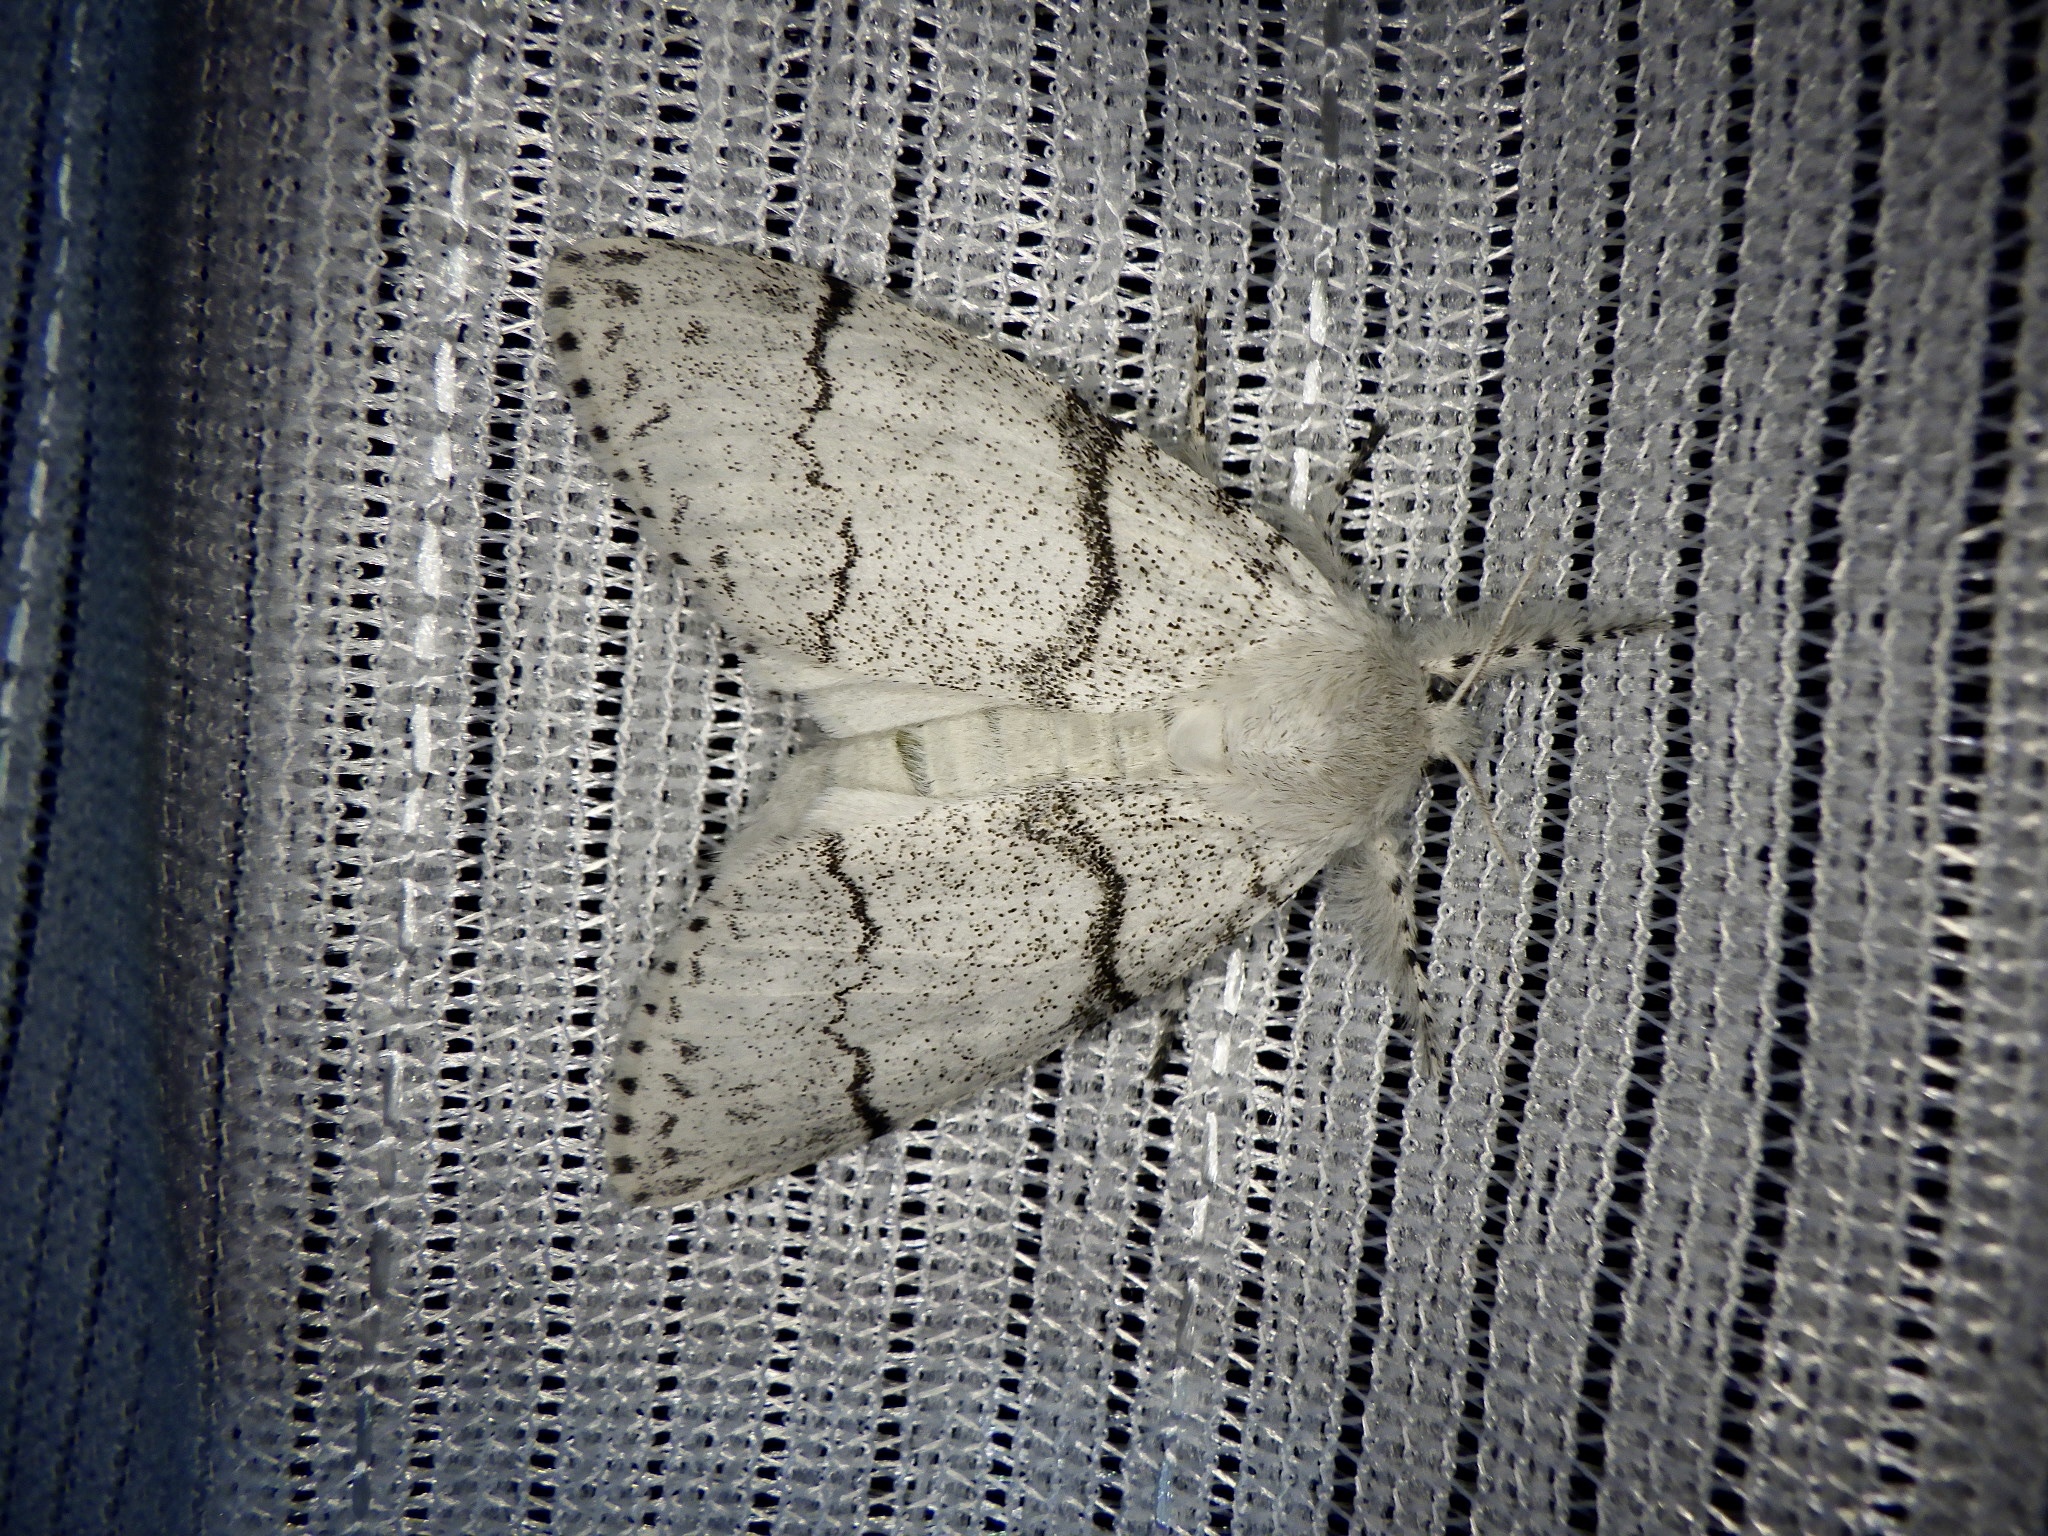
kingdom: Animalia
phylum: Arthropoda
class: Insecta
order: Lepidoptera
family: Erebidae
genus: Calliteara
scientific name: Calliteara
